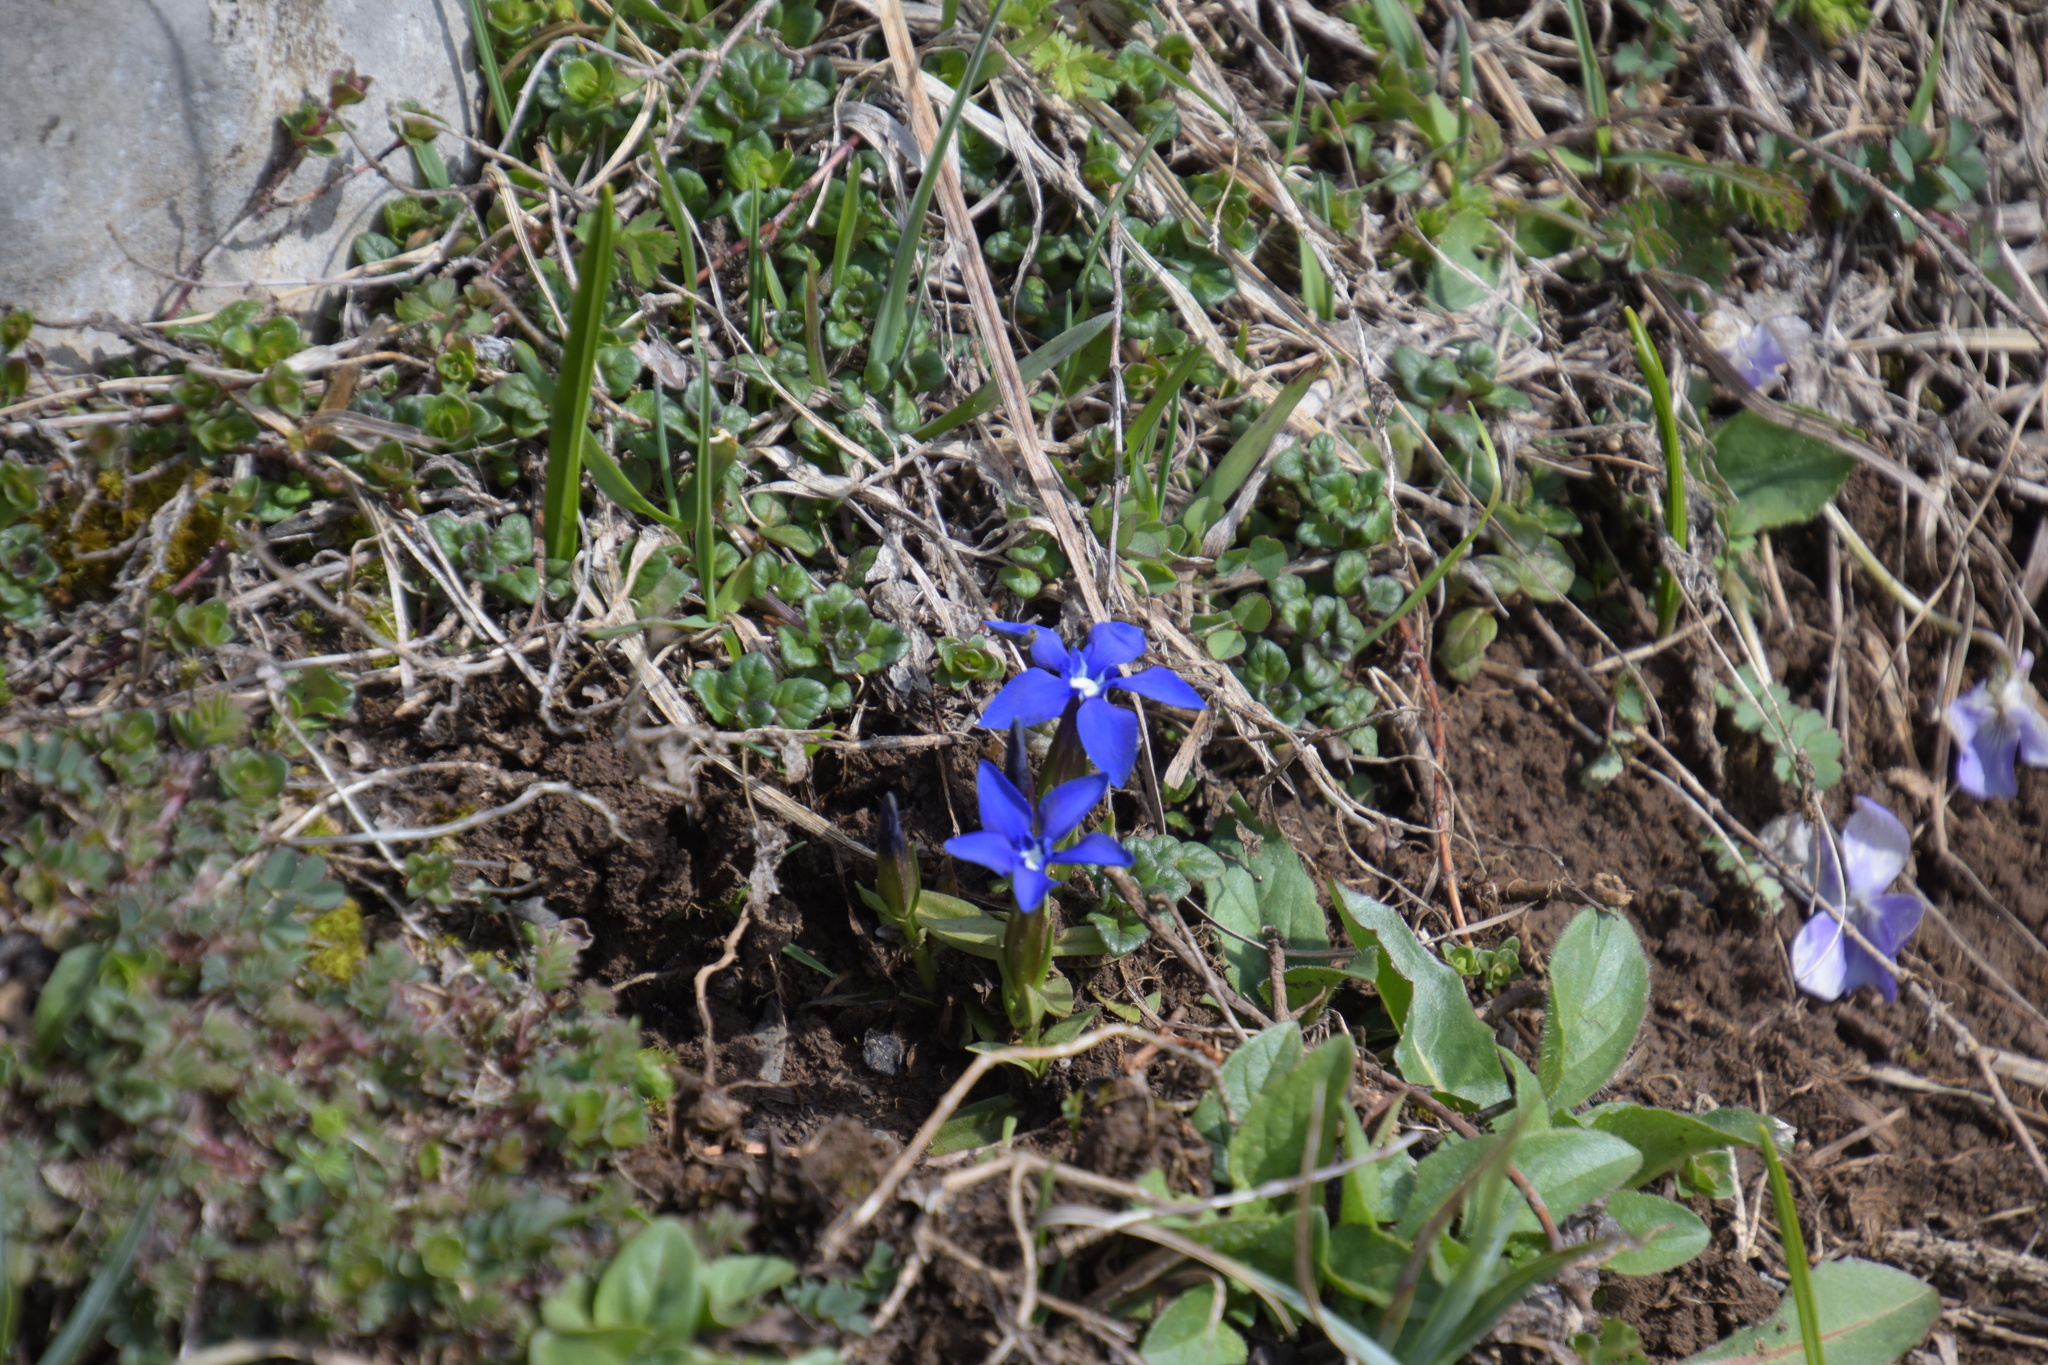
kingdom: Plantae
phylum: Tracheophyta
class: Magnoliopsida
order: Gentianales
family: Gentianaceae
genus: Gentiana
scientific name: Gentiana verna
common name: Spring gentian
